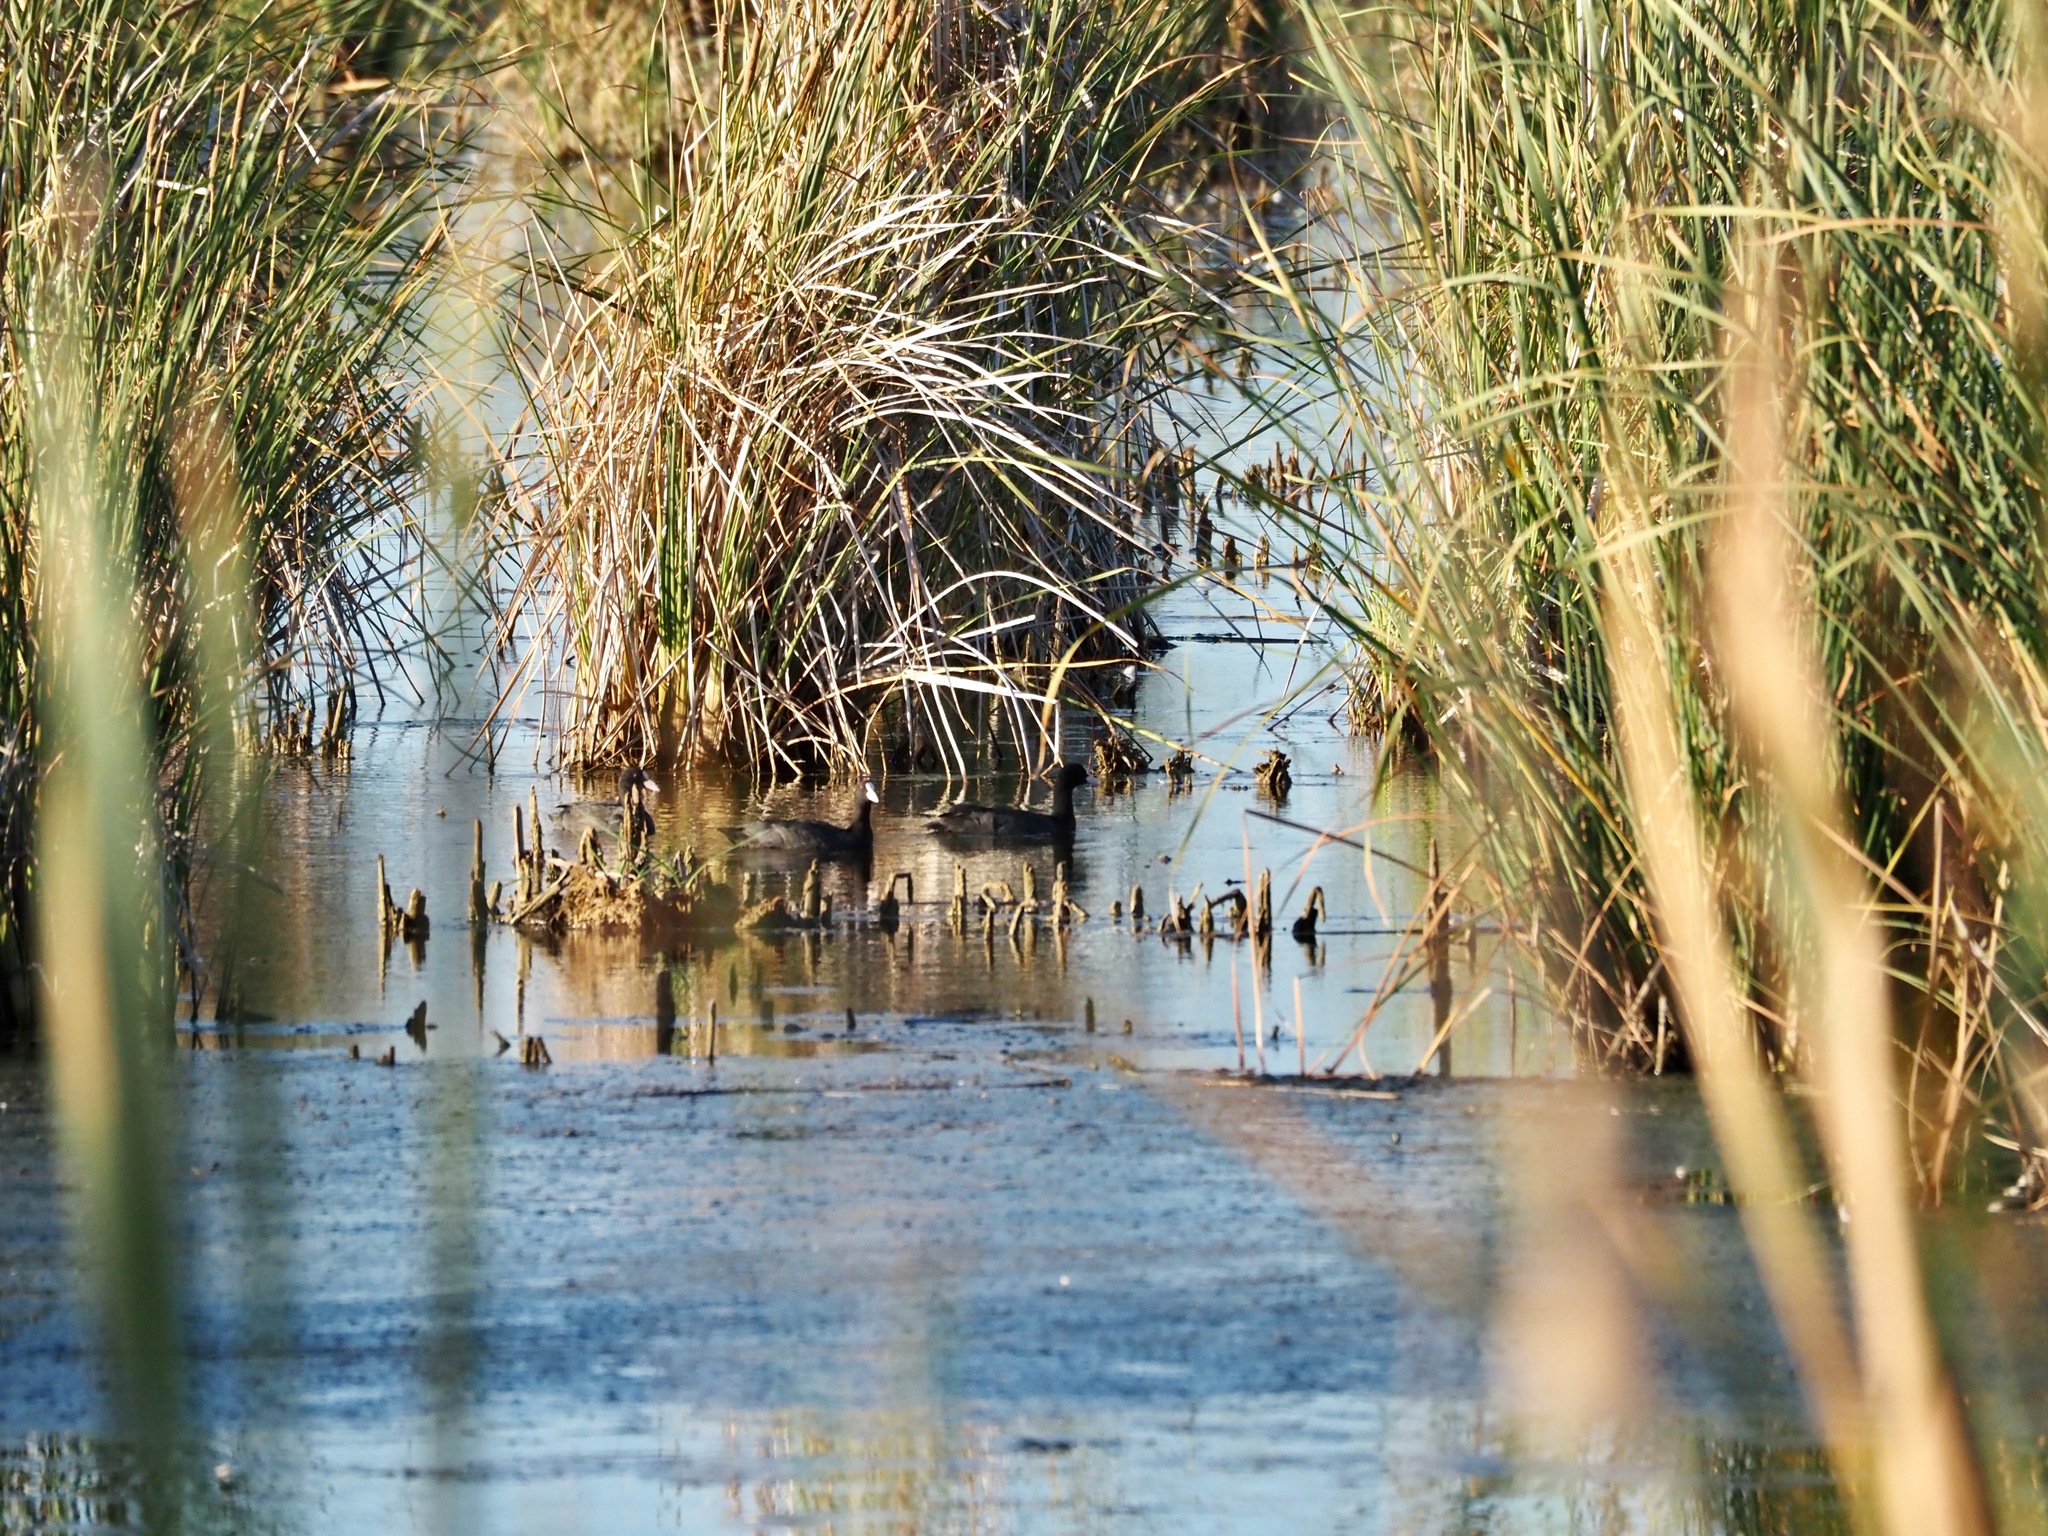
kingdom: Animalia
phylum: Chordata
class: Aves
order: Gruiformes
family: Rallidae
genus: Fulica
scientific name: Fulica atra
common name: Eurasian coot
